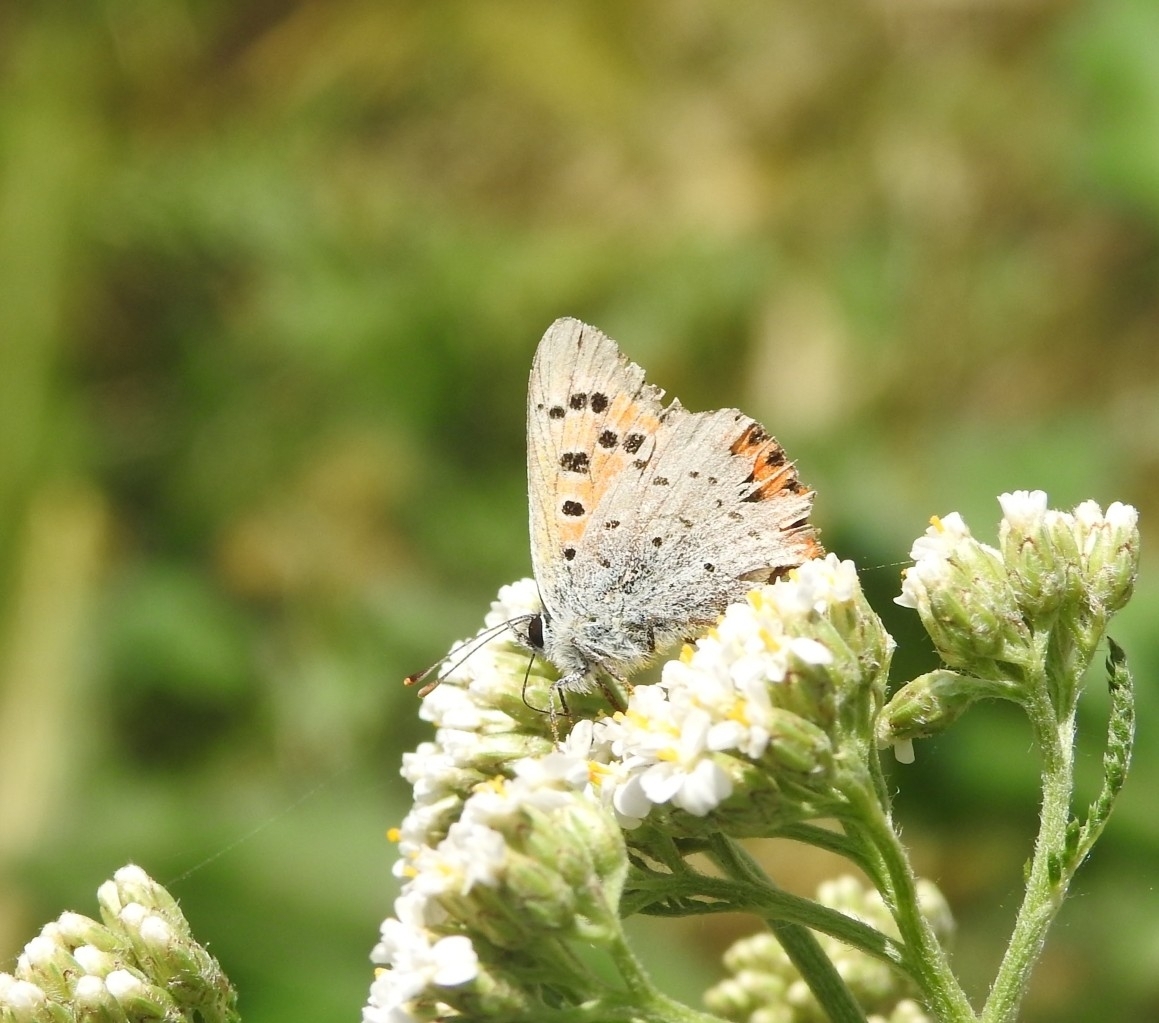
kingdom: Animalia
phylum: Arthropoda
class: Insecta
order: Lepidoptera
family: Lycaenidae
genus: Lycaena
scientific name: Lycaena phlaeas
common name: Small copper
